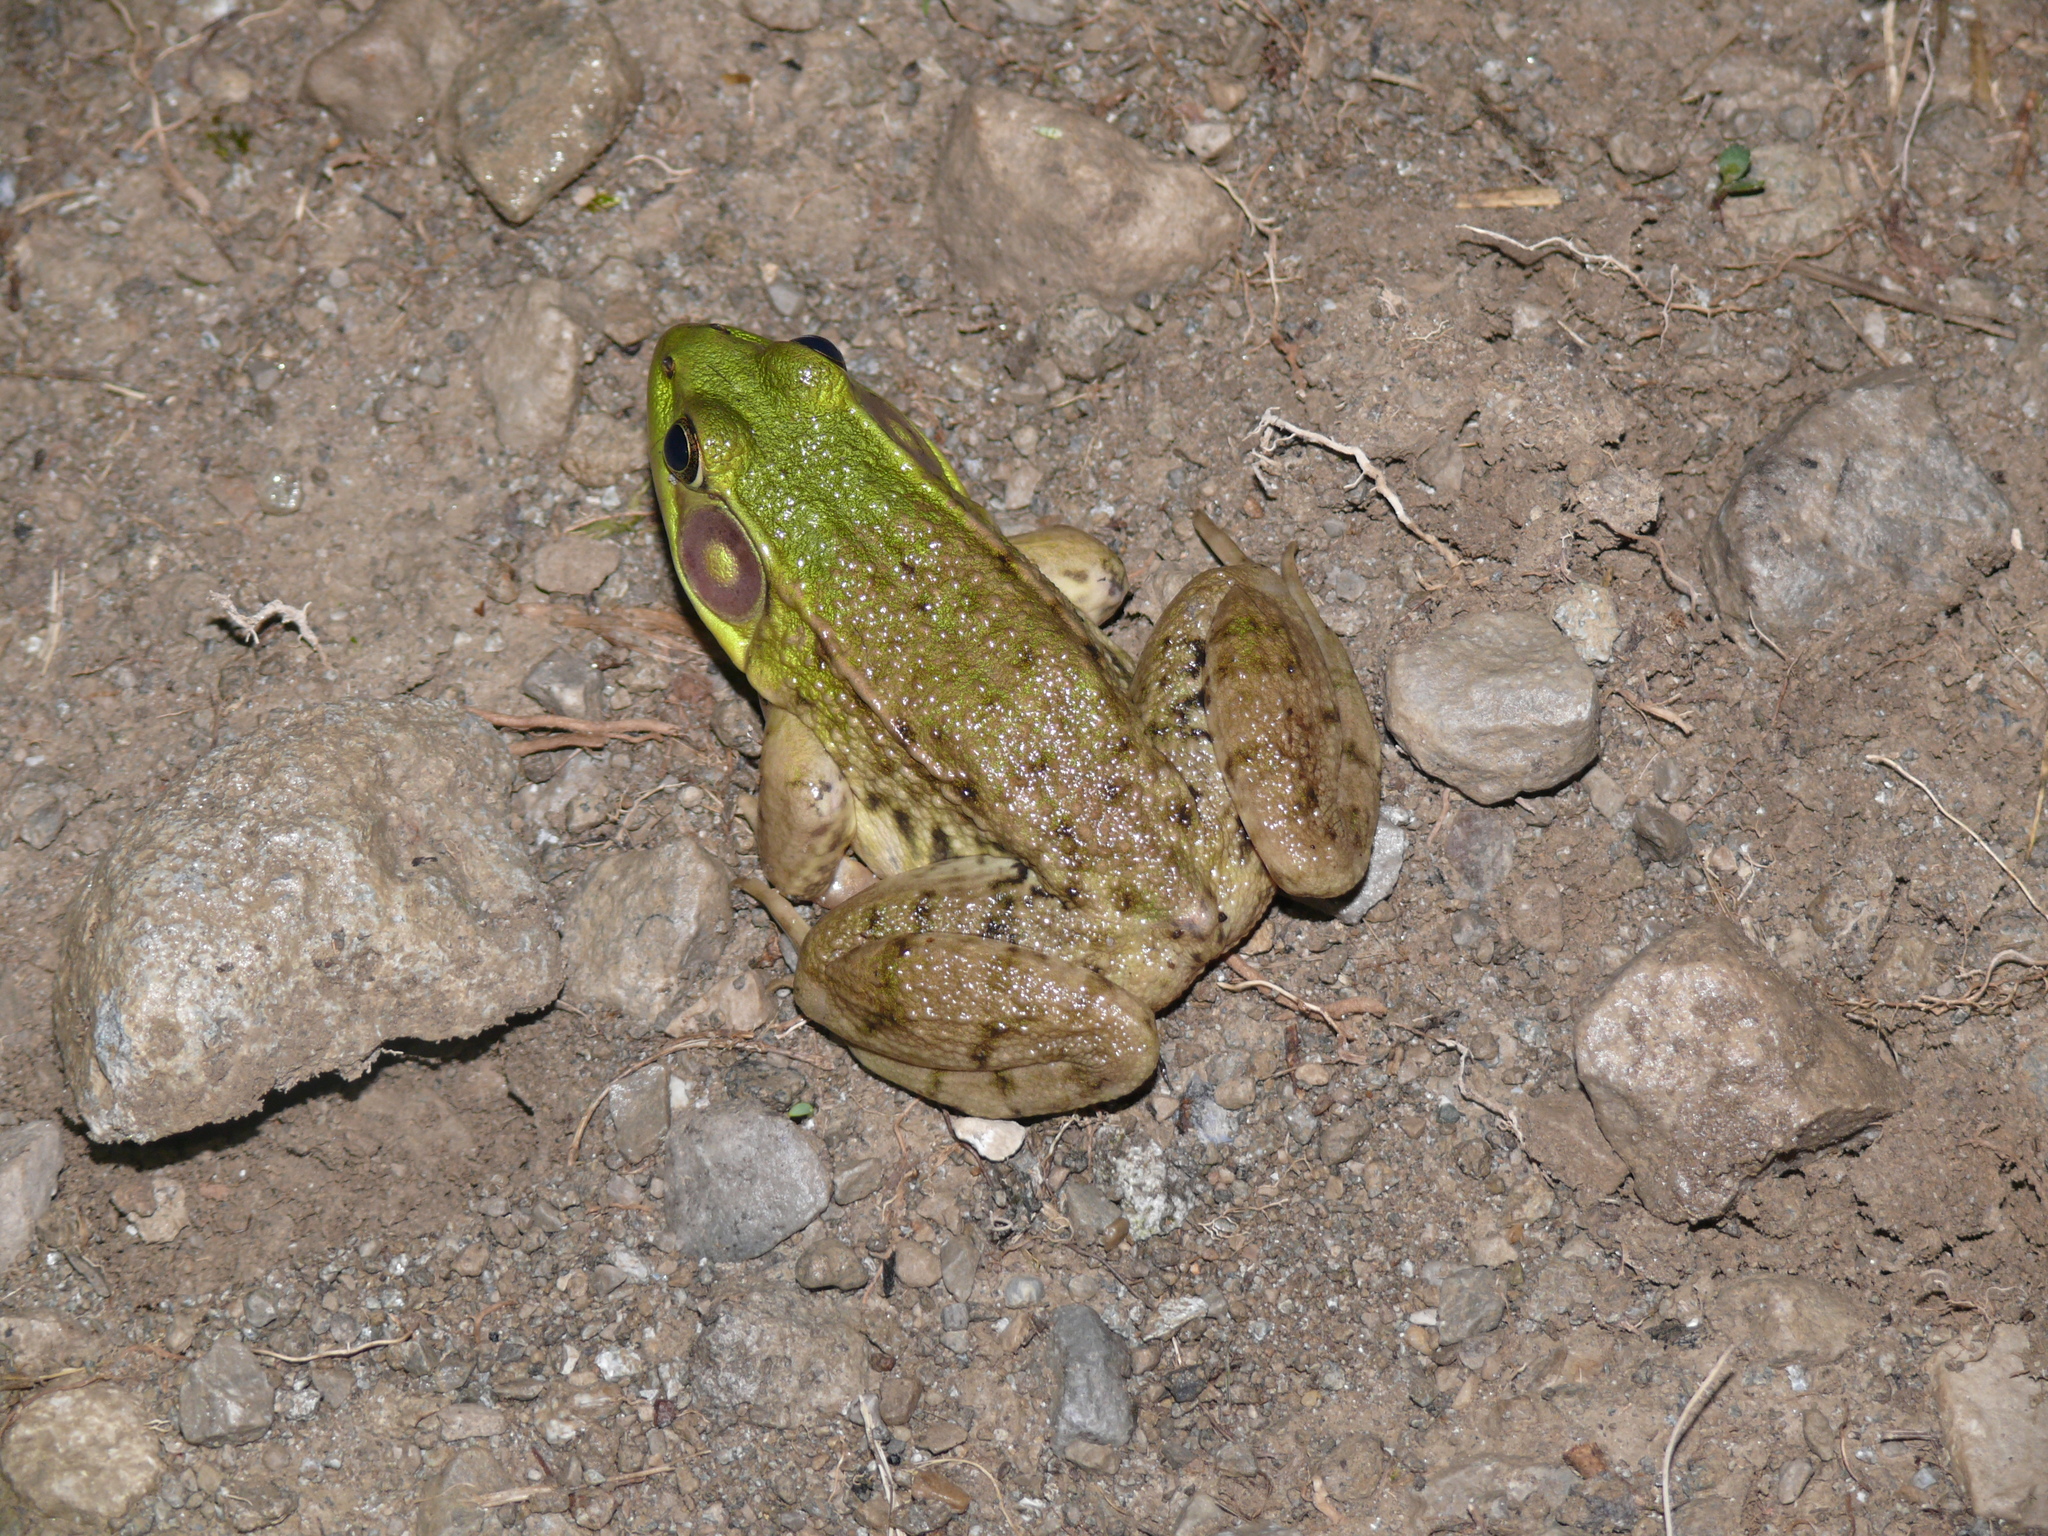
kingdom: Animalia
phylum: Chordata
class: Amphibia
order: Anura
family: Ranidae
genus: Lithobates
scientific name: Lithobates clamitans
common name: Green frog
